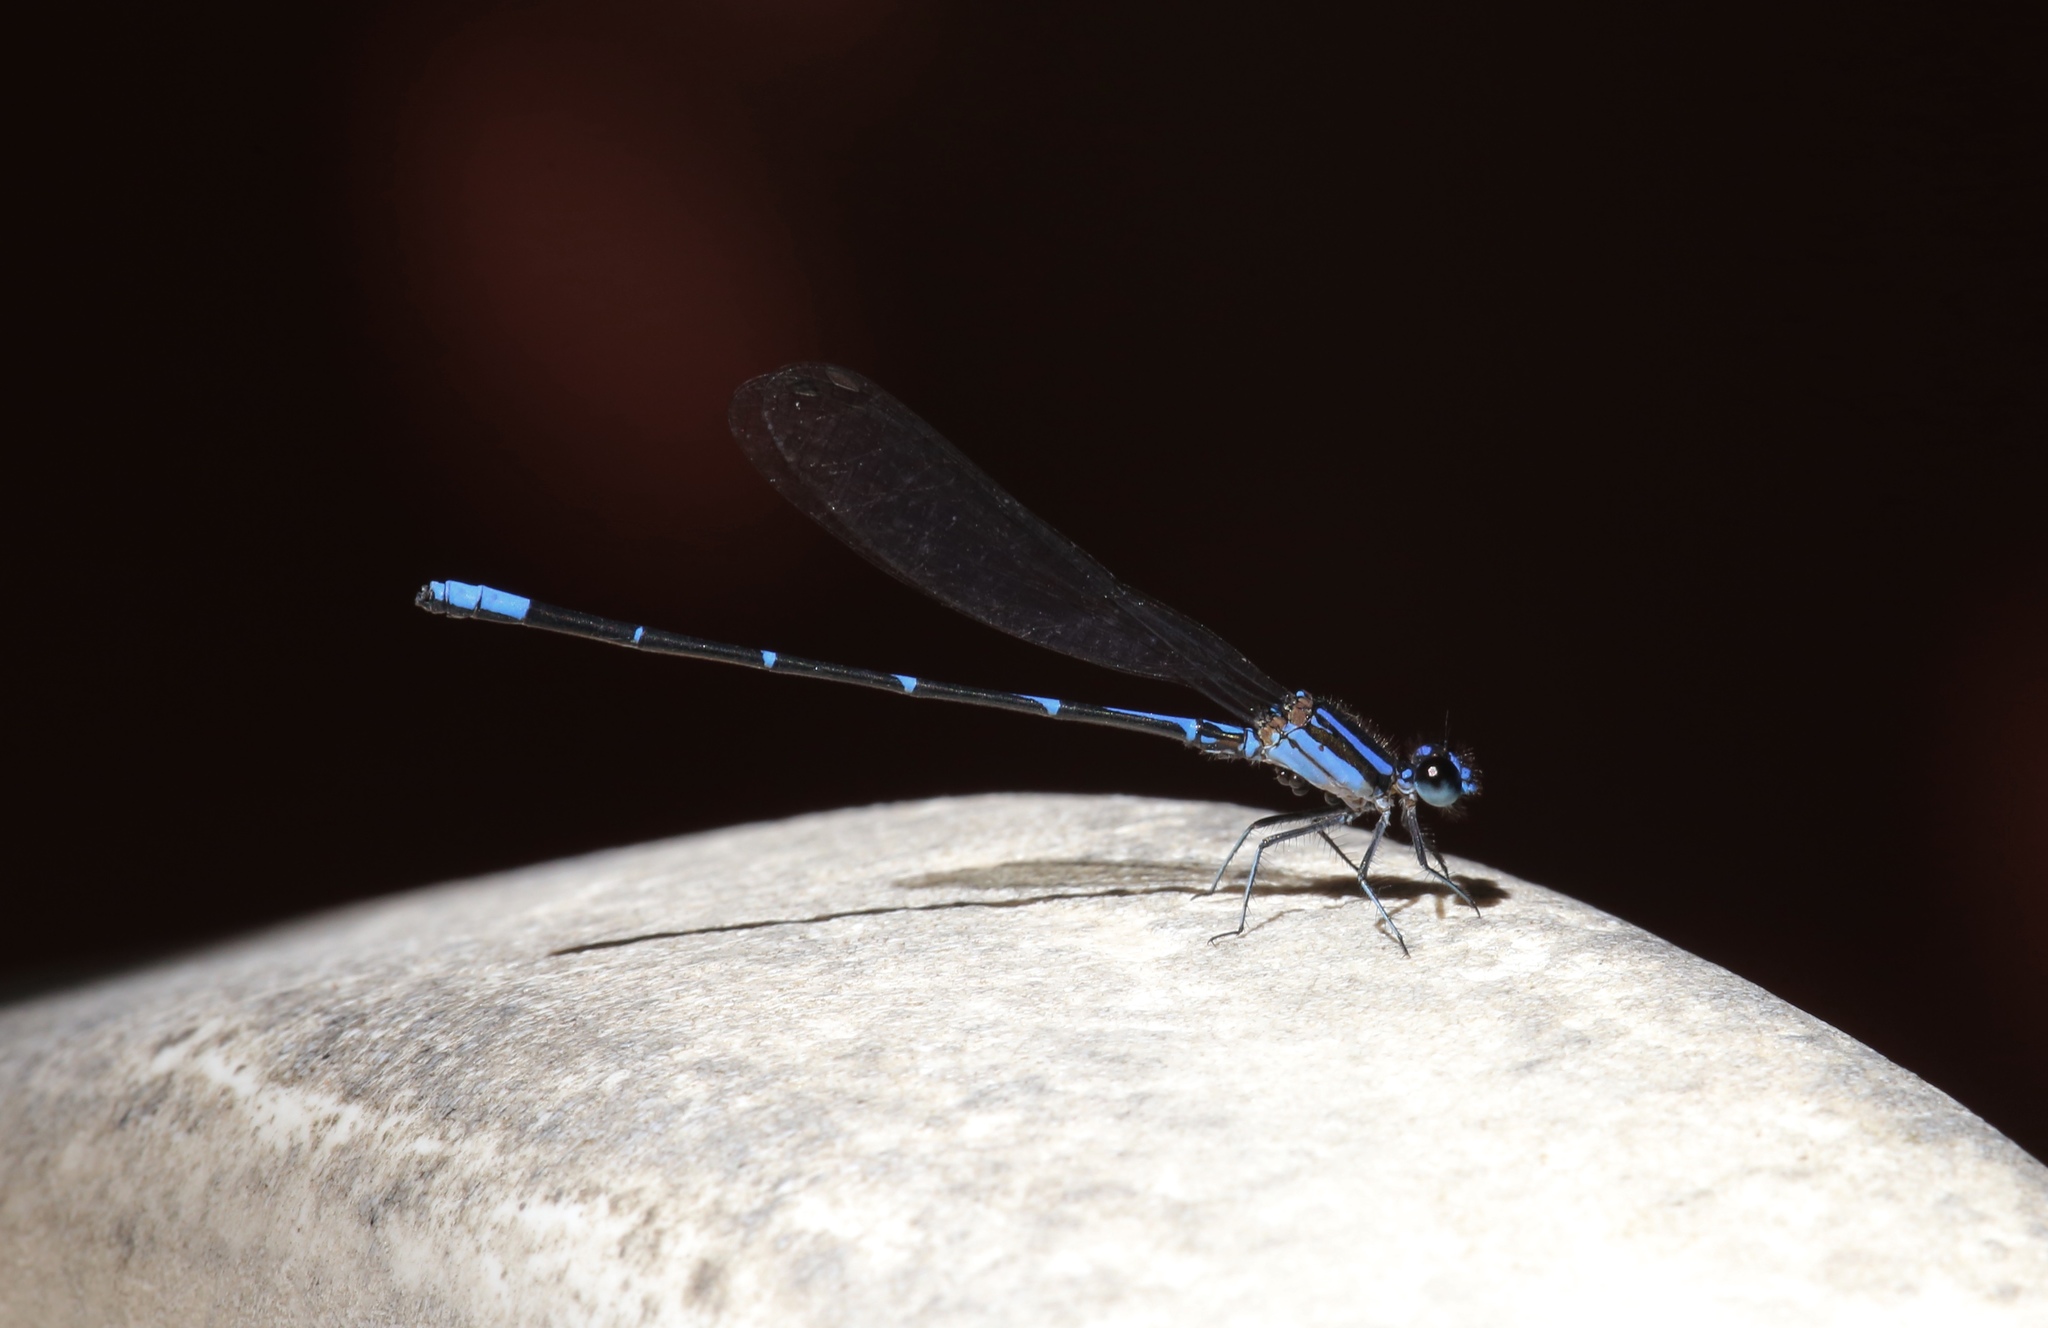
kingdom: Animalia
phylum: Arthropoda
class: Insecta
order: Odonata
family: Coenagrionidae
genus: Argia
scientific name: Argia oculata
